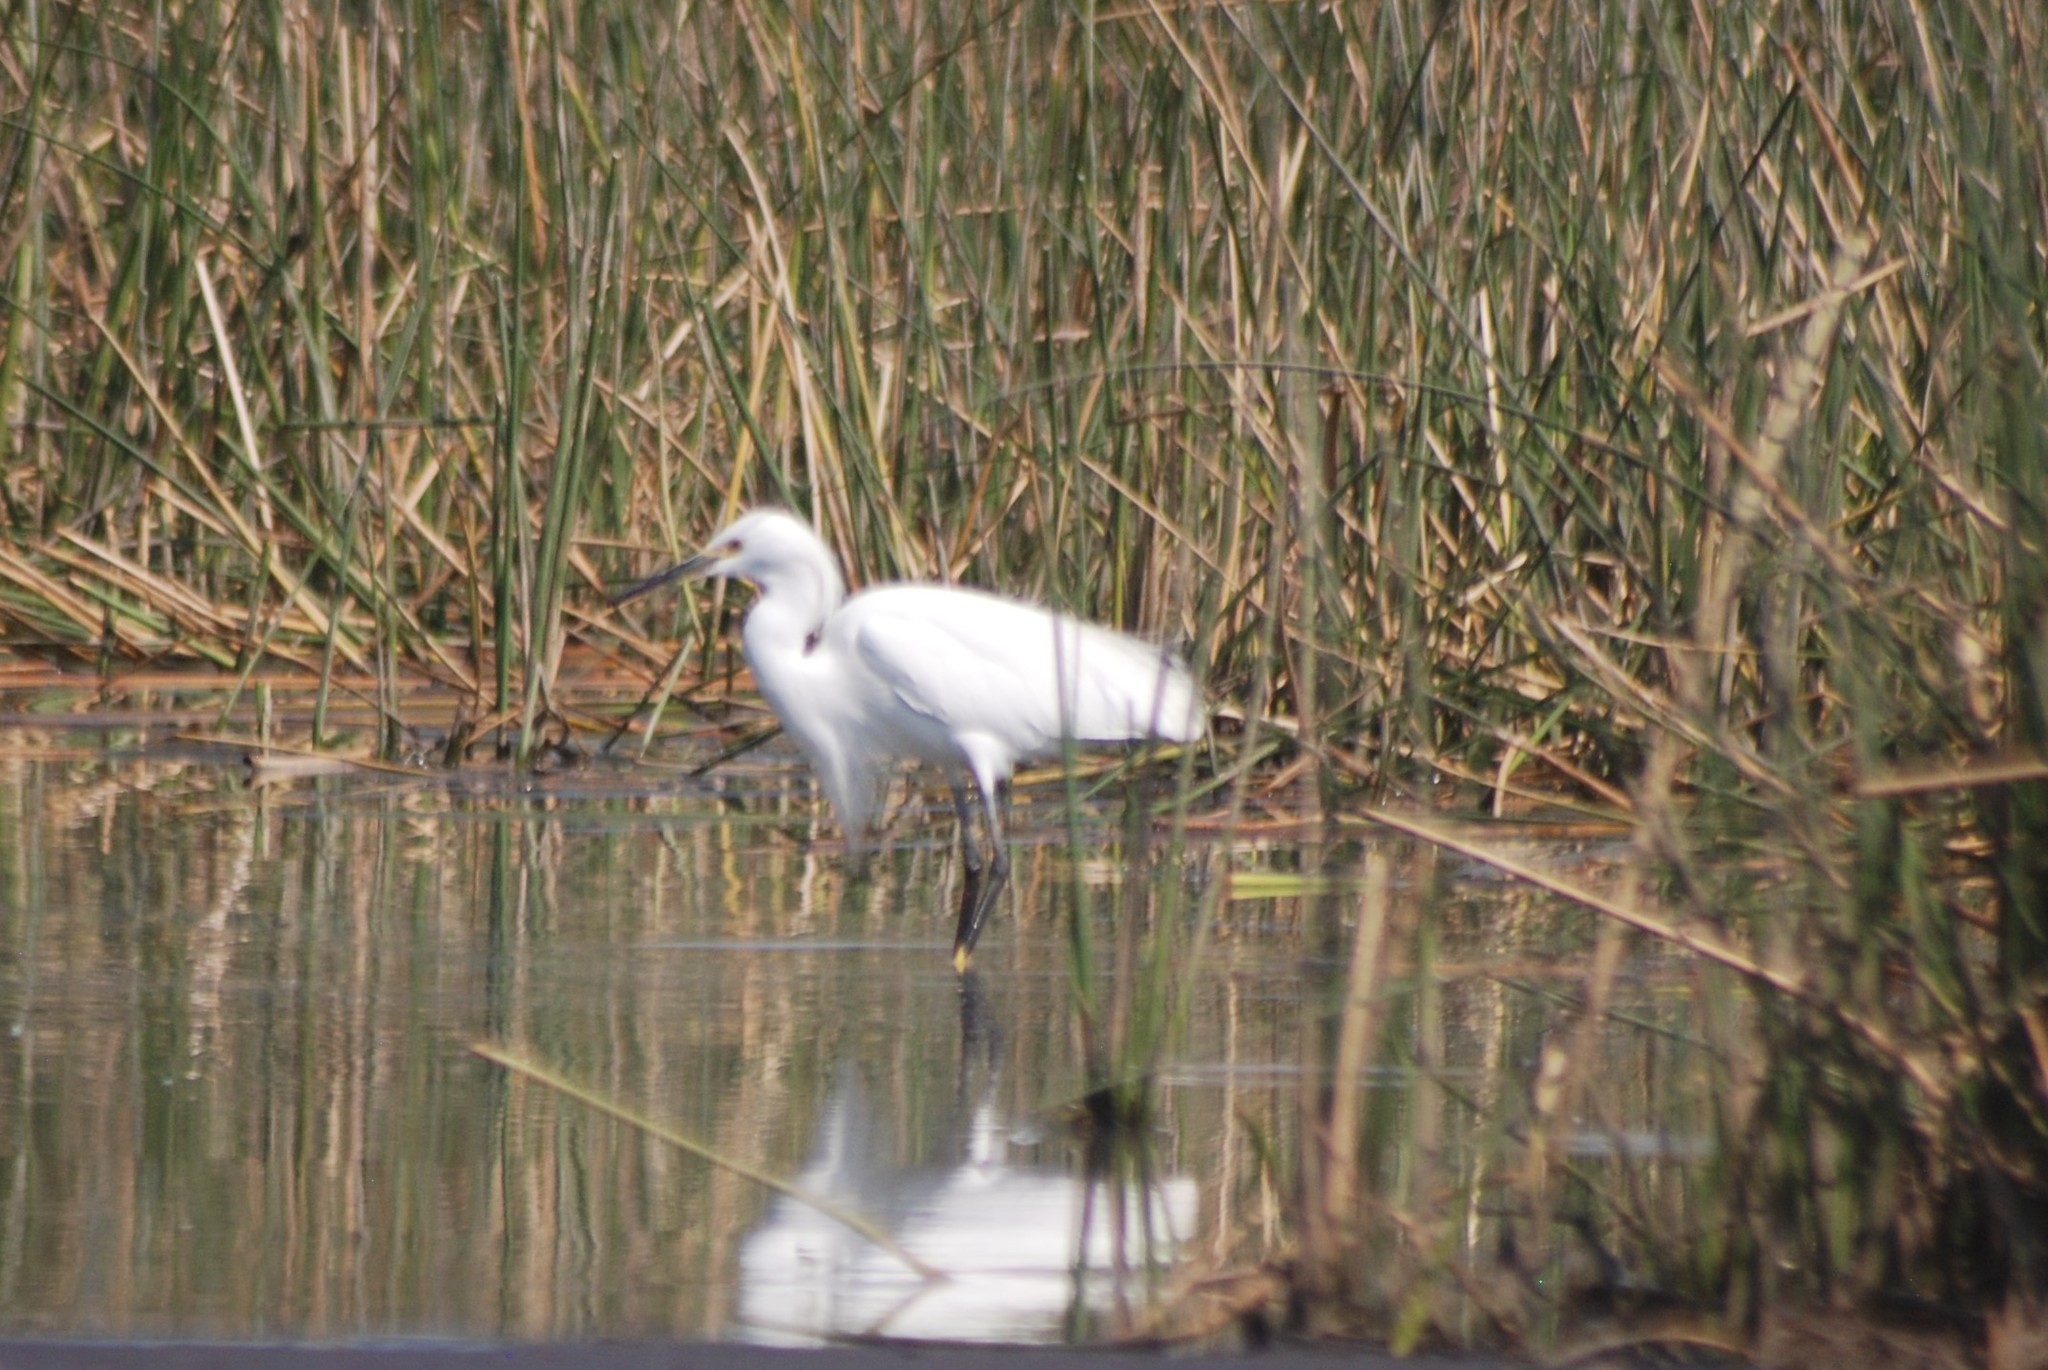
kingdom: Animalia
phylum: Chordata
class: Aves
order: Pelecaniformes
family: Ardeidae
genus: Egretta
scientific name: Egretta thula
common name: Snowy egret
